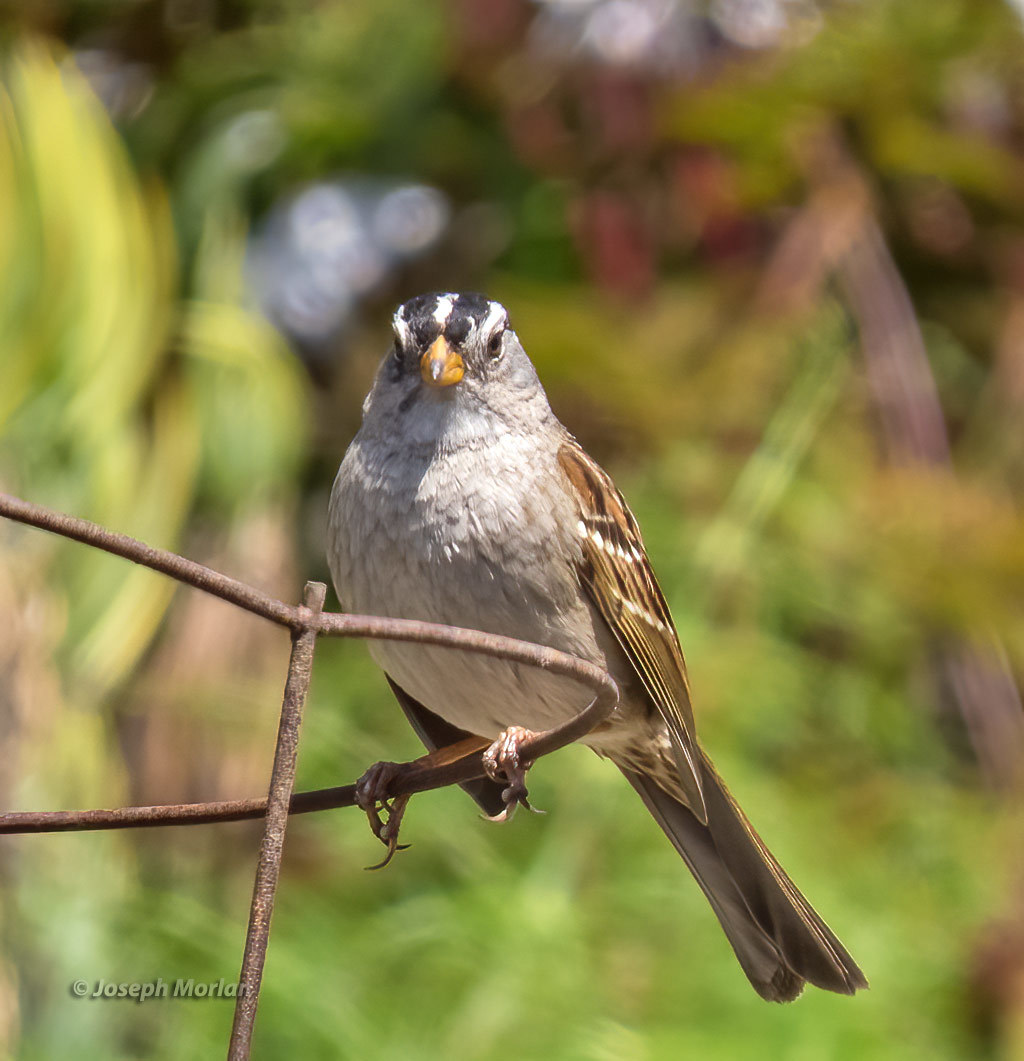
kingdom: Animalia
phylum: Chordata
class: Aves
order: Passeriformes
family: Passerellidae
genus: Zonotrichia
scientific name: Zonotrichia leucophrys
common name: White-crowned sparrow
